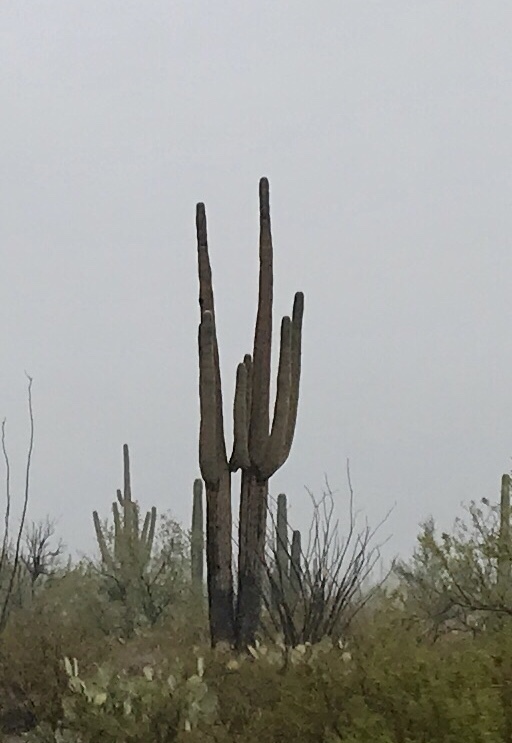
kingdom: Plantae
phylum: Tracheophyta
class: Magnoliopsida
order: Caryophyllales
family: Cactaceae
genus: Carnegiea
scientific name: Carnegiea gigantea
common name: Saguaro
